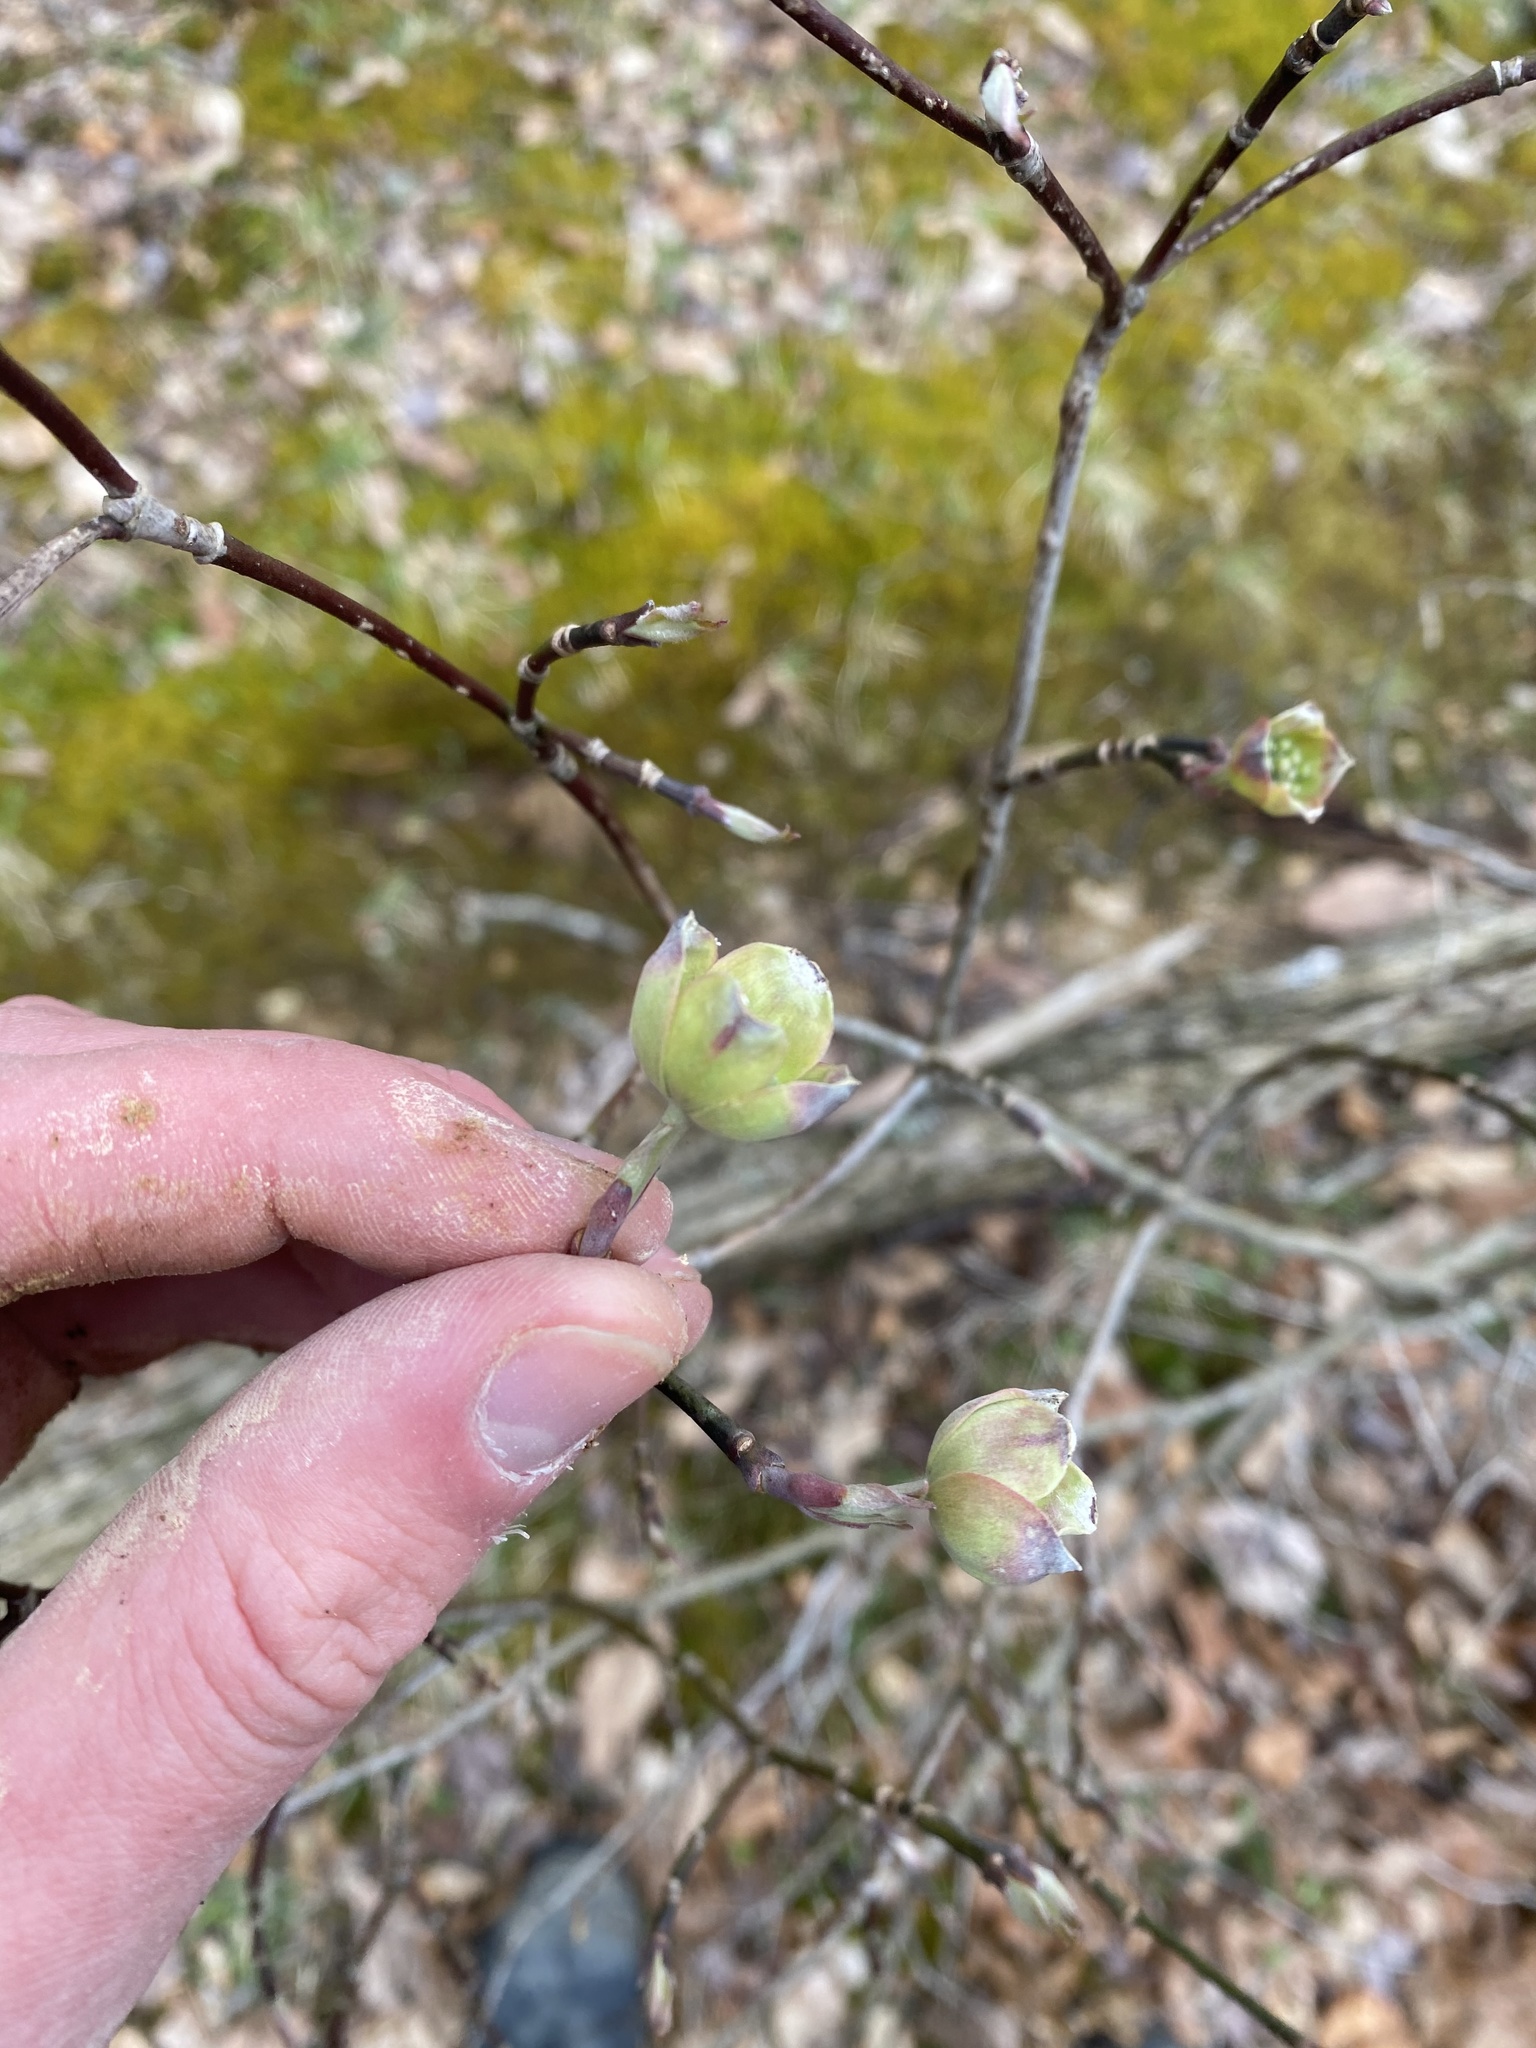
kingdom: Plantae
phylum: Tracheophyta
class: Magnoliopsida
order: Cornales
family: Cornaceae
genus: Cornus
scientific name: Cornus florida
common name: Flowering dogwood
